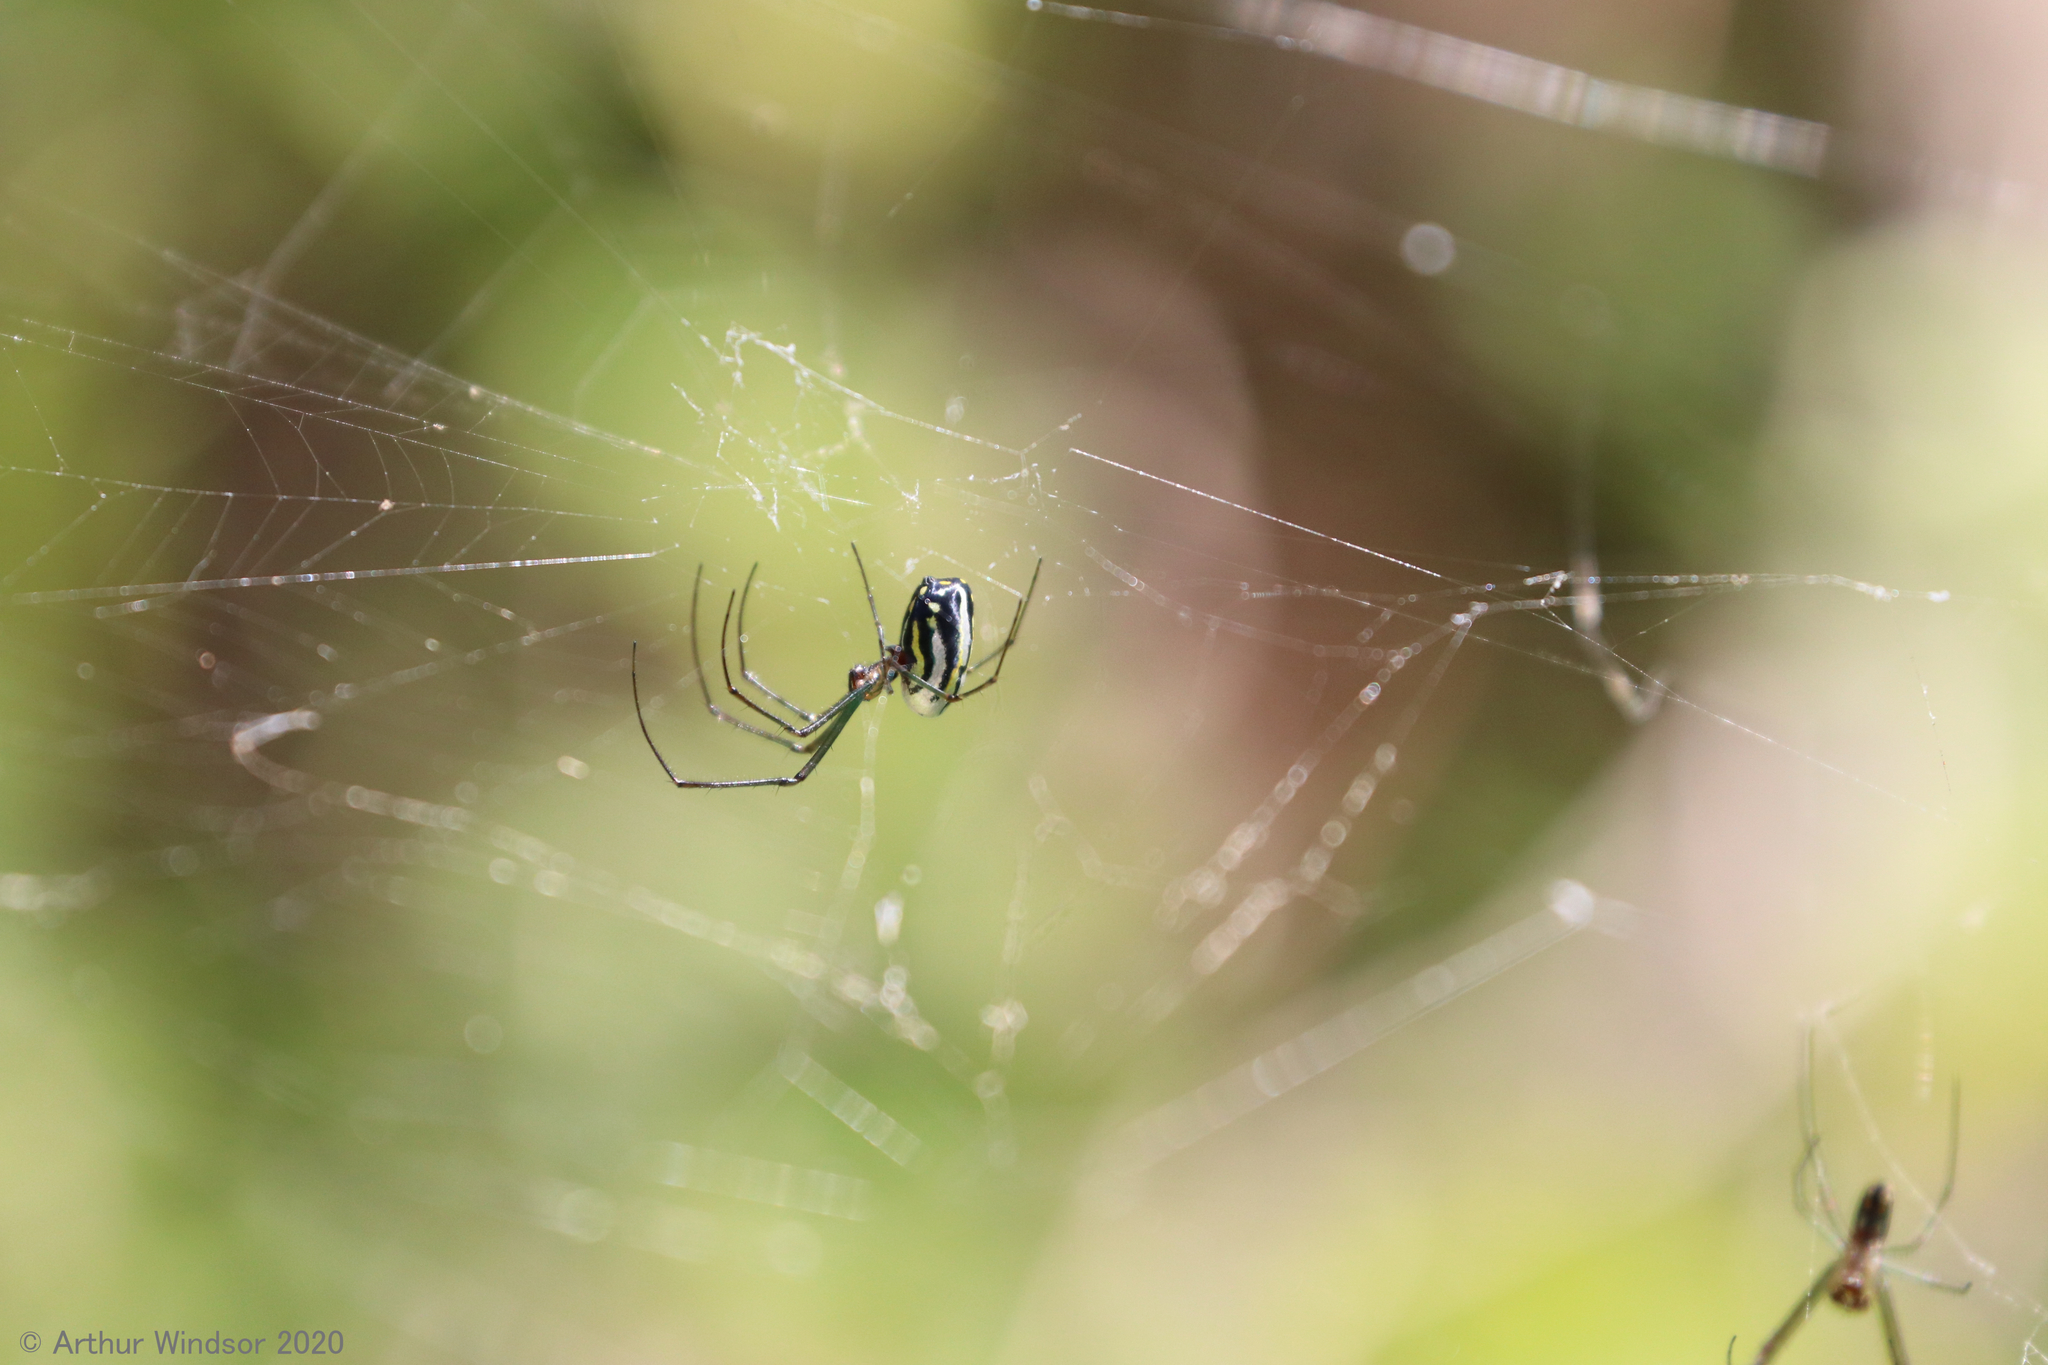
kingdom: Animalia
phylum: Arthropoda
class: Arachnida
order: Araneae
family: Tetragnathidae
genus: Leucauge
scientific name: Leucauge argyra
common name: Longjawed orb weavers
